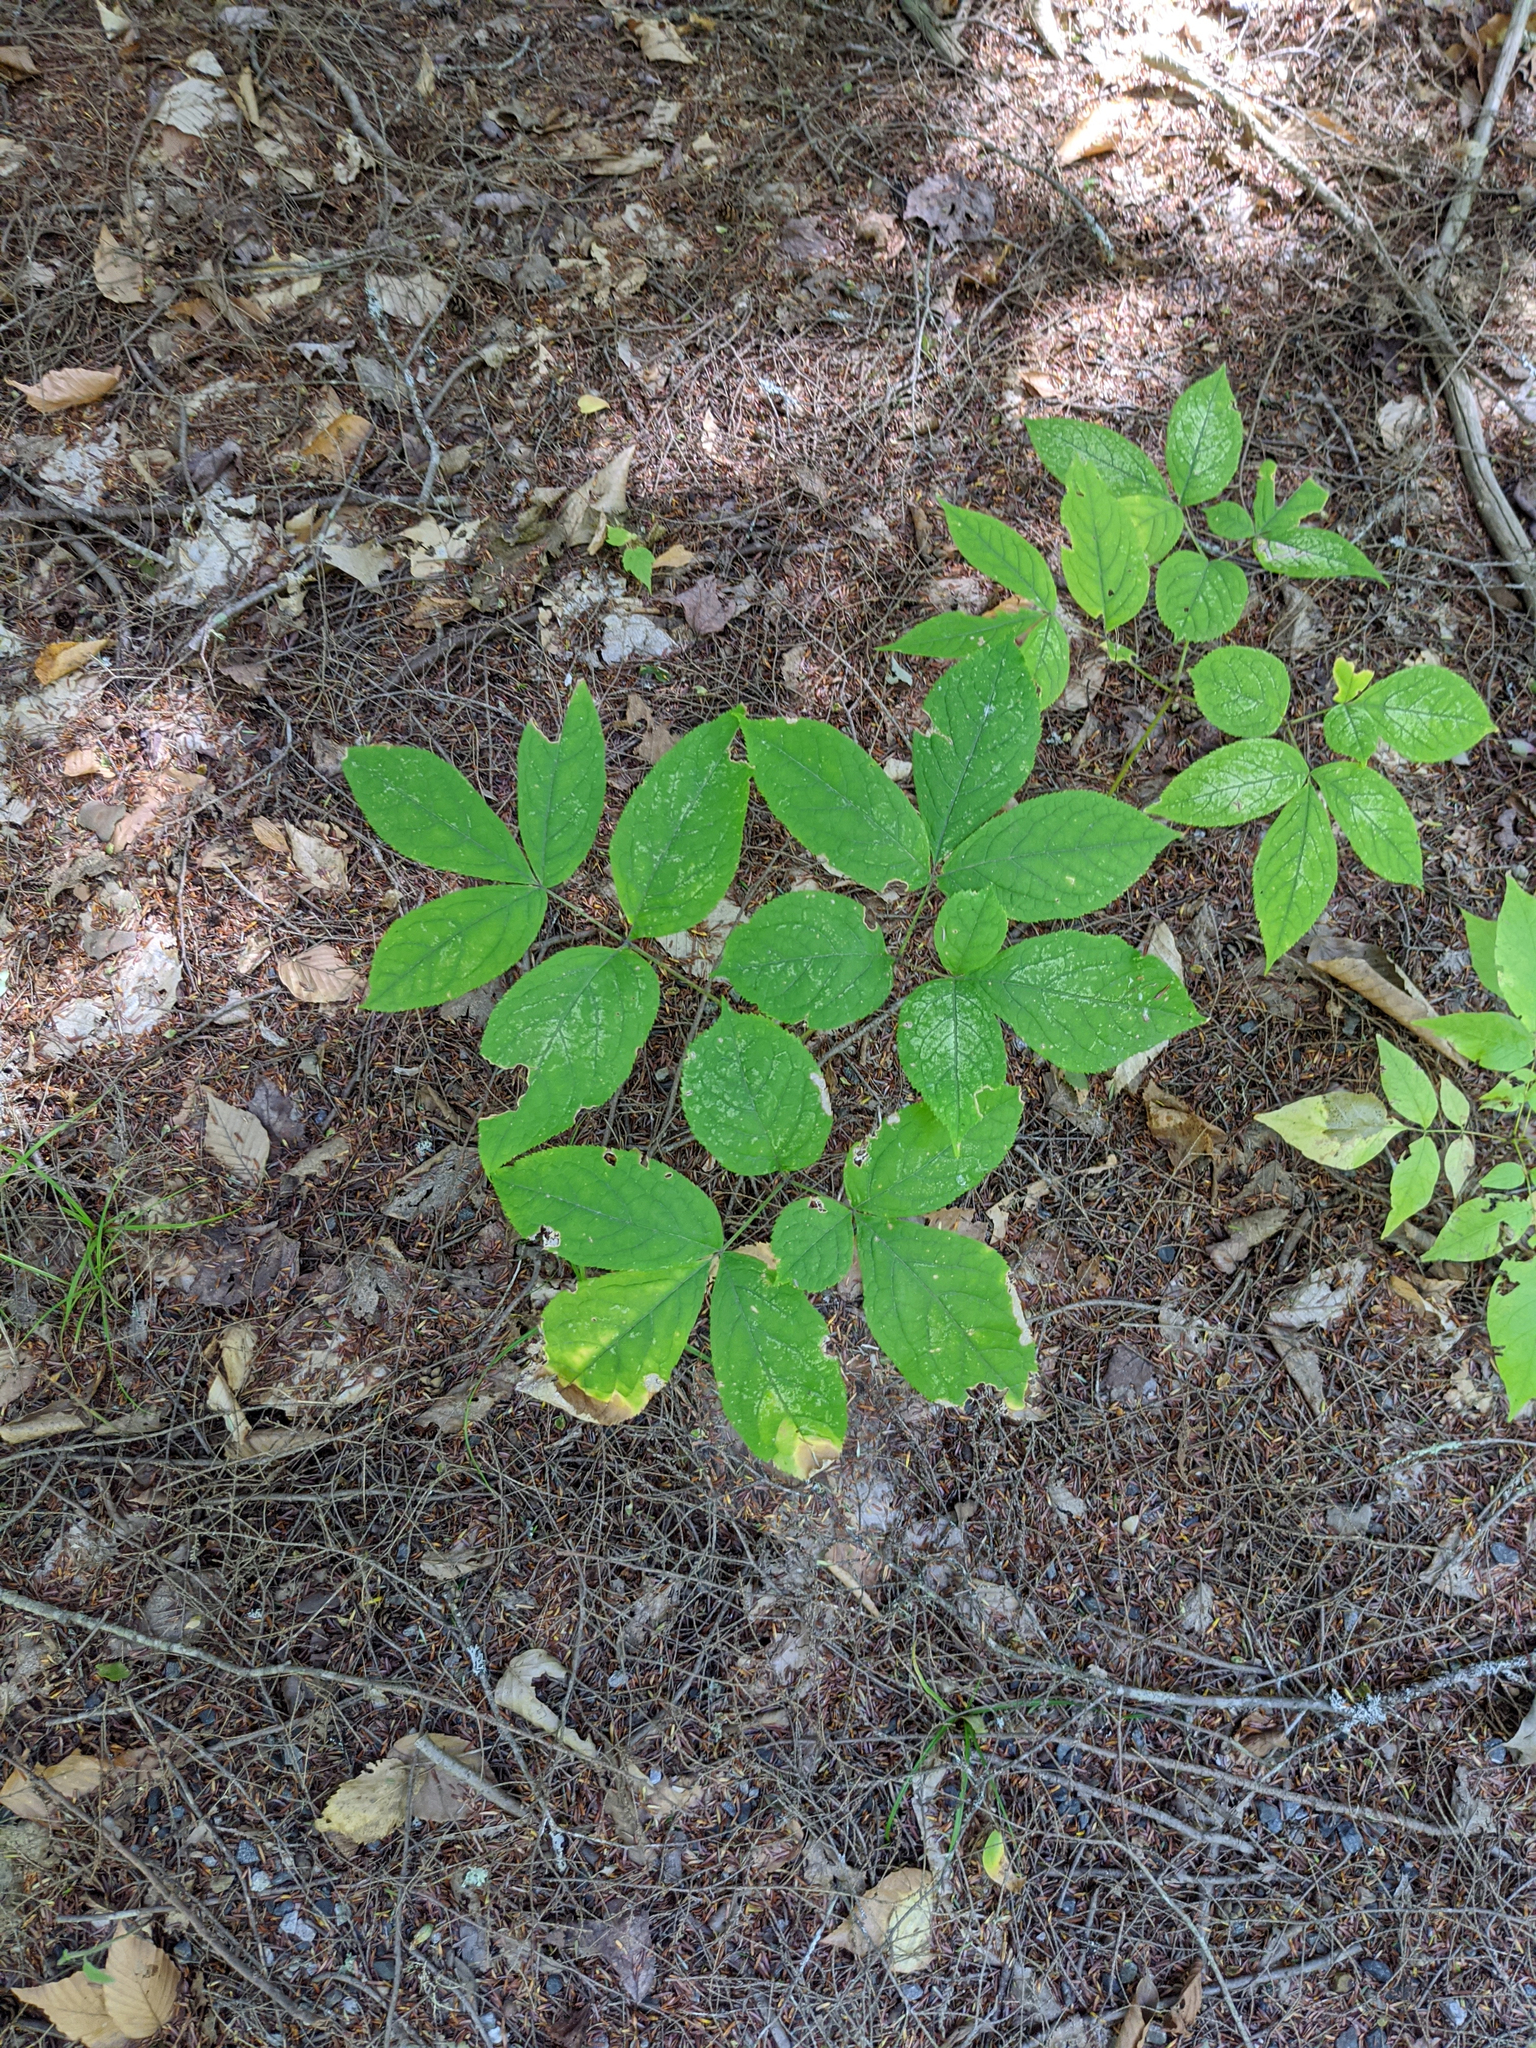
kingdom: Plantae
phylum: Tracheophyta
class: Magnoliopsida
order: Apiales
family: Araliaceae
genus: Aralia
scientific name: Aralia nudicaulis
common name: Wild sarsaparilla
